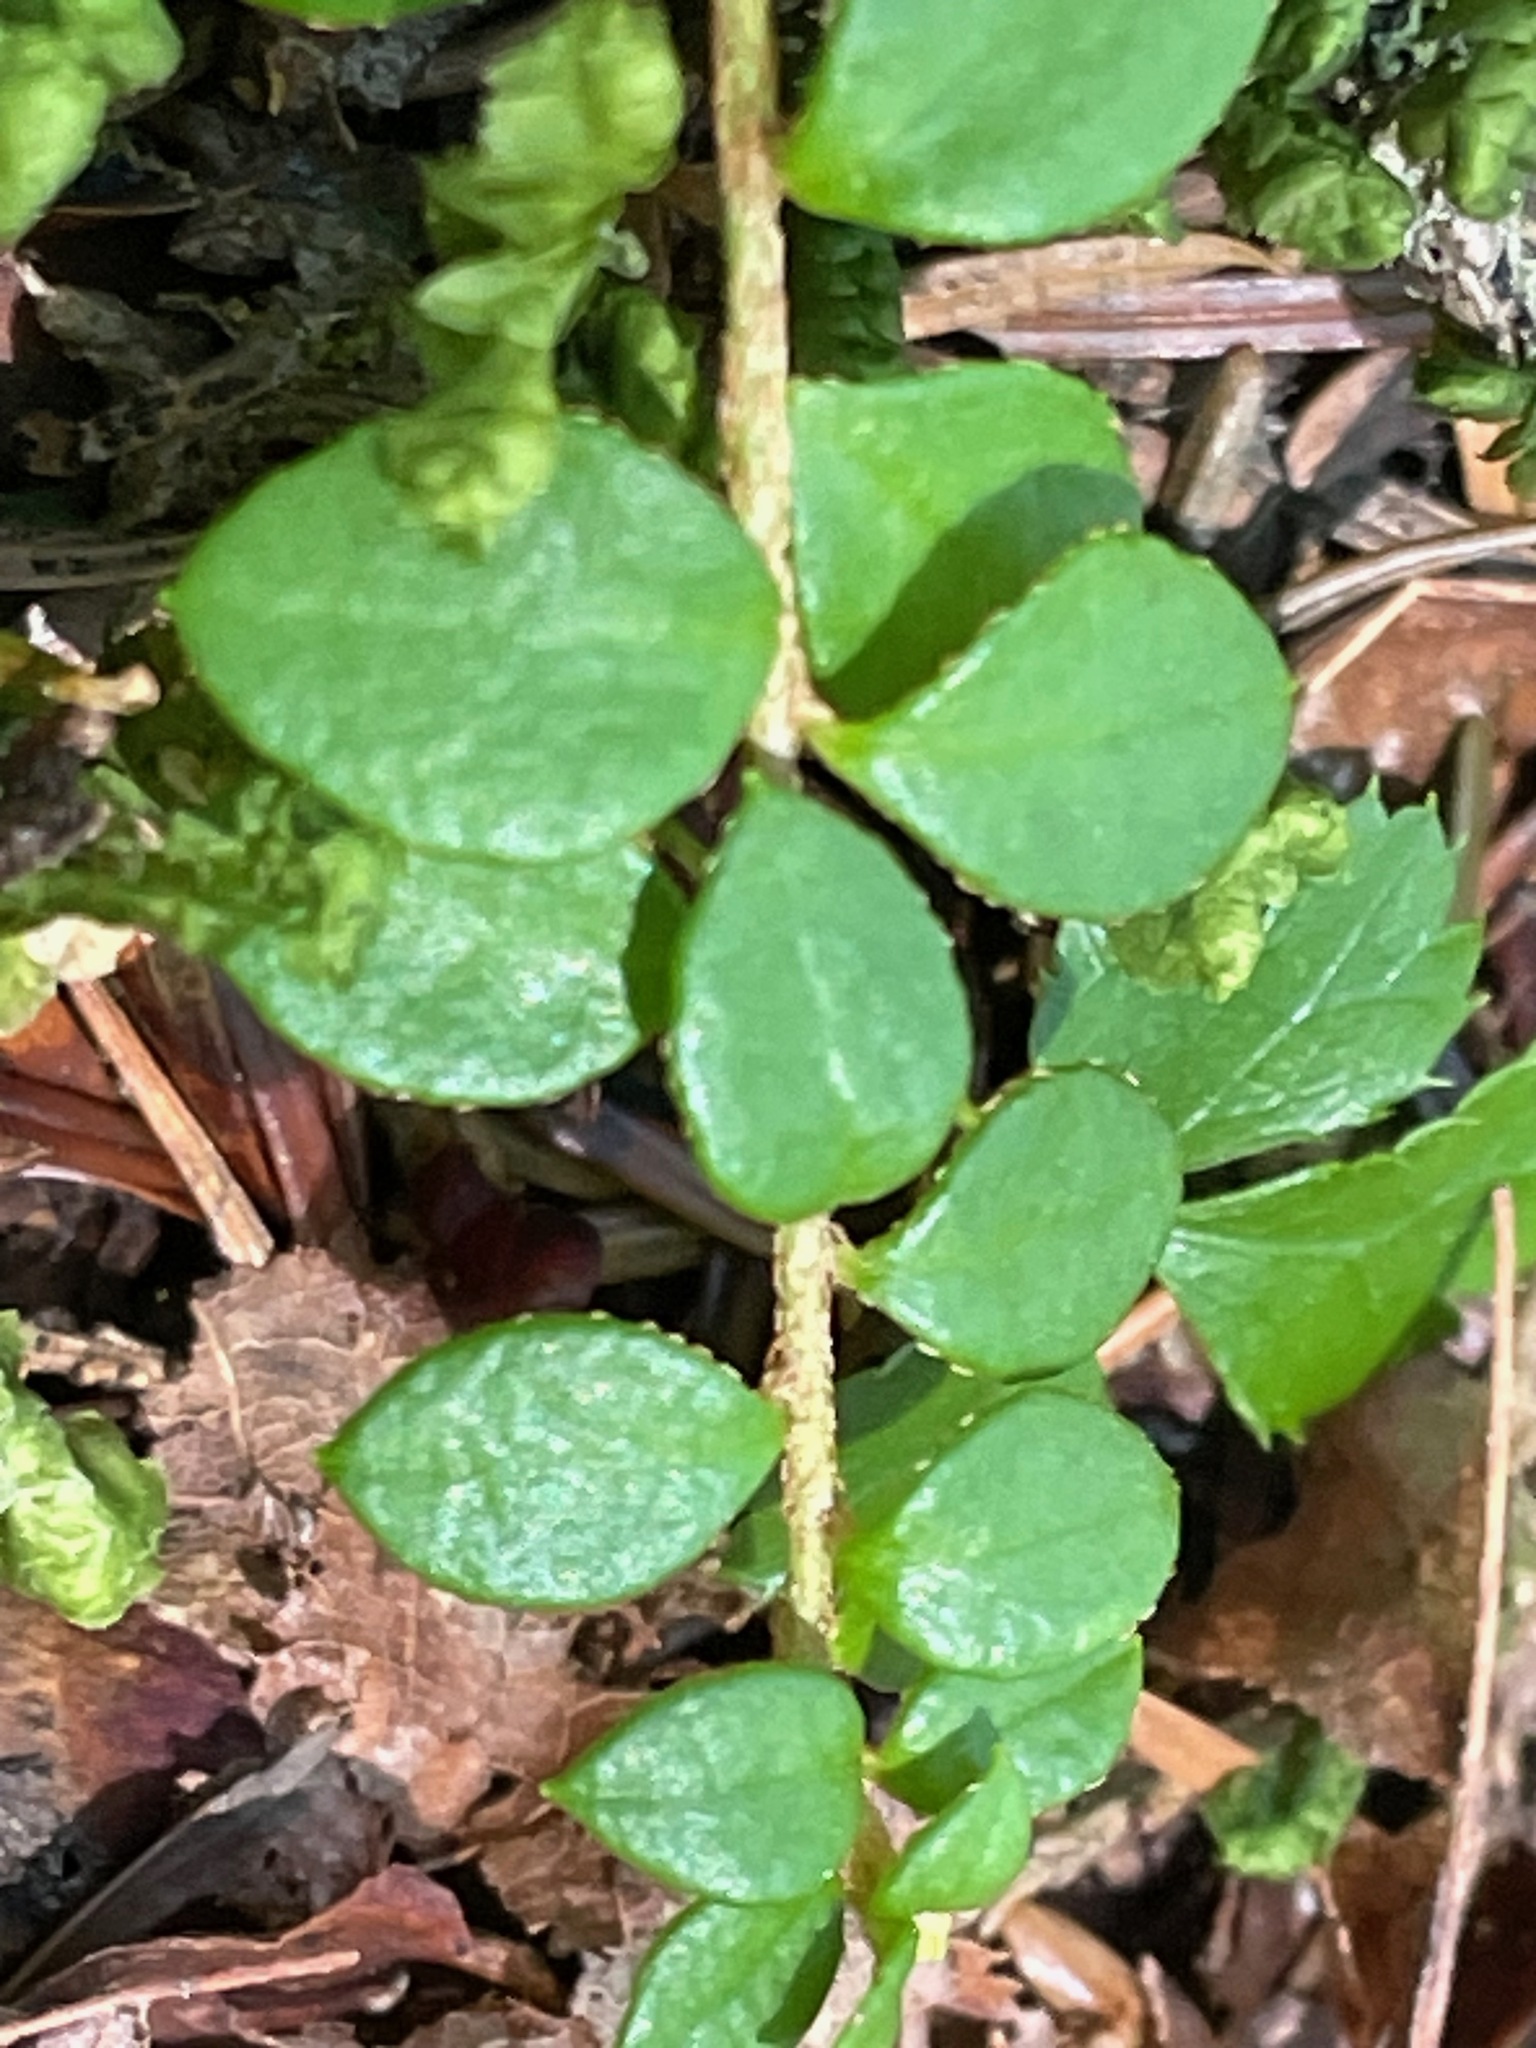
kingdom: Plantae
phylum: Tracheophyta
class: Magnoliopsida
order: Ericales
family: Ericaceae
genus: Gaultheria
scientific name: Gaultheria hispidula
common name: Cancer wintergreen
